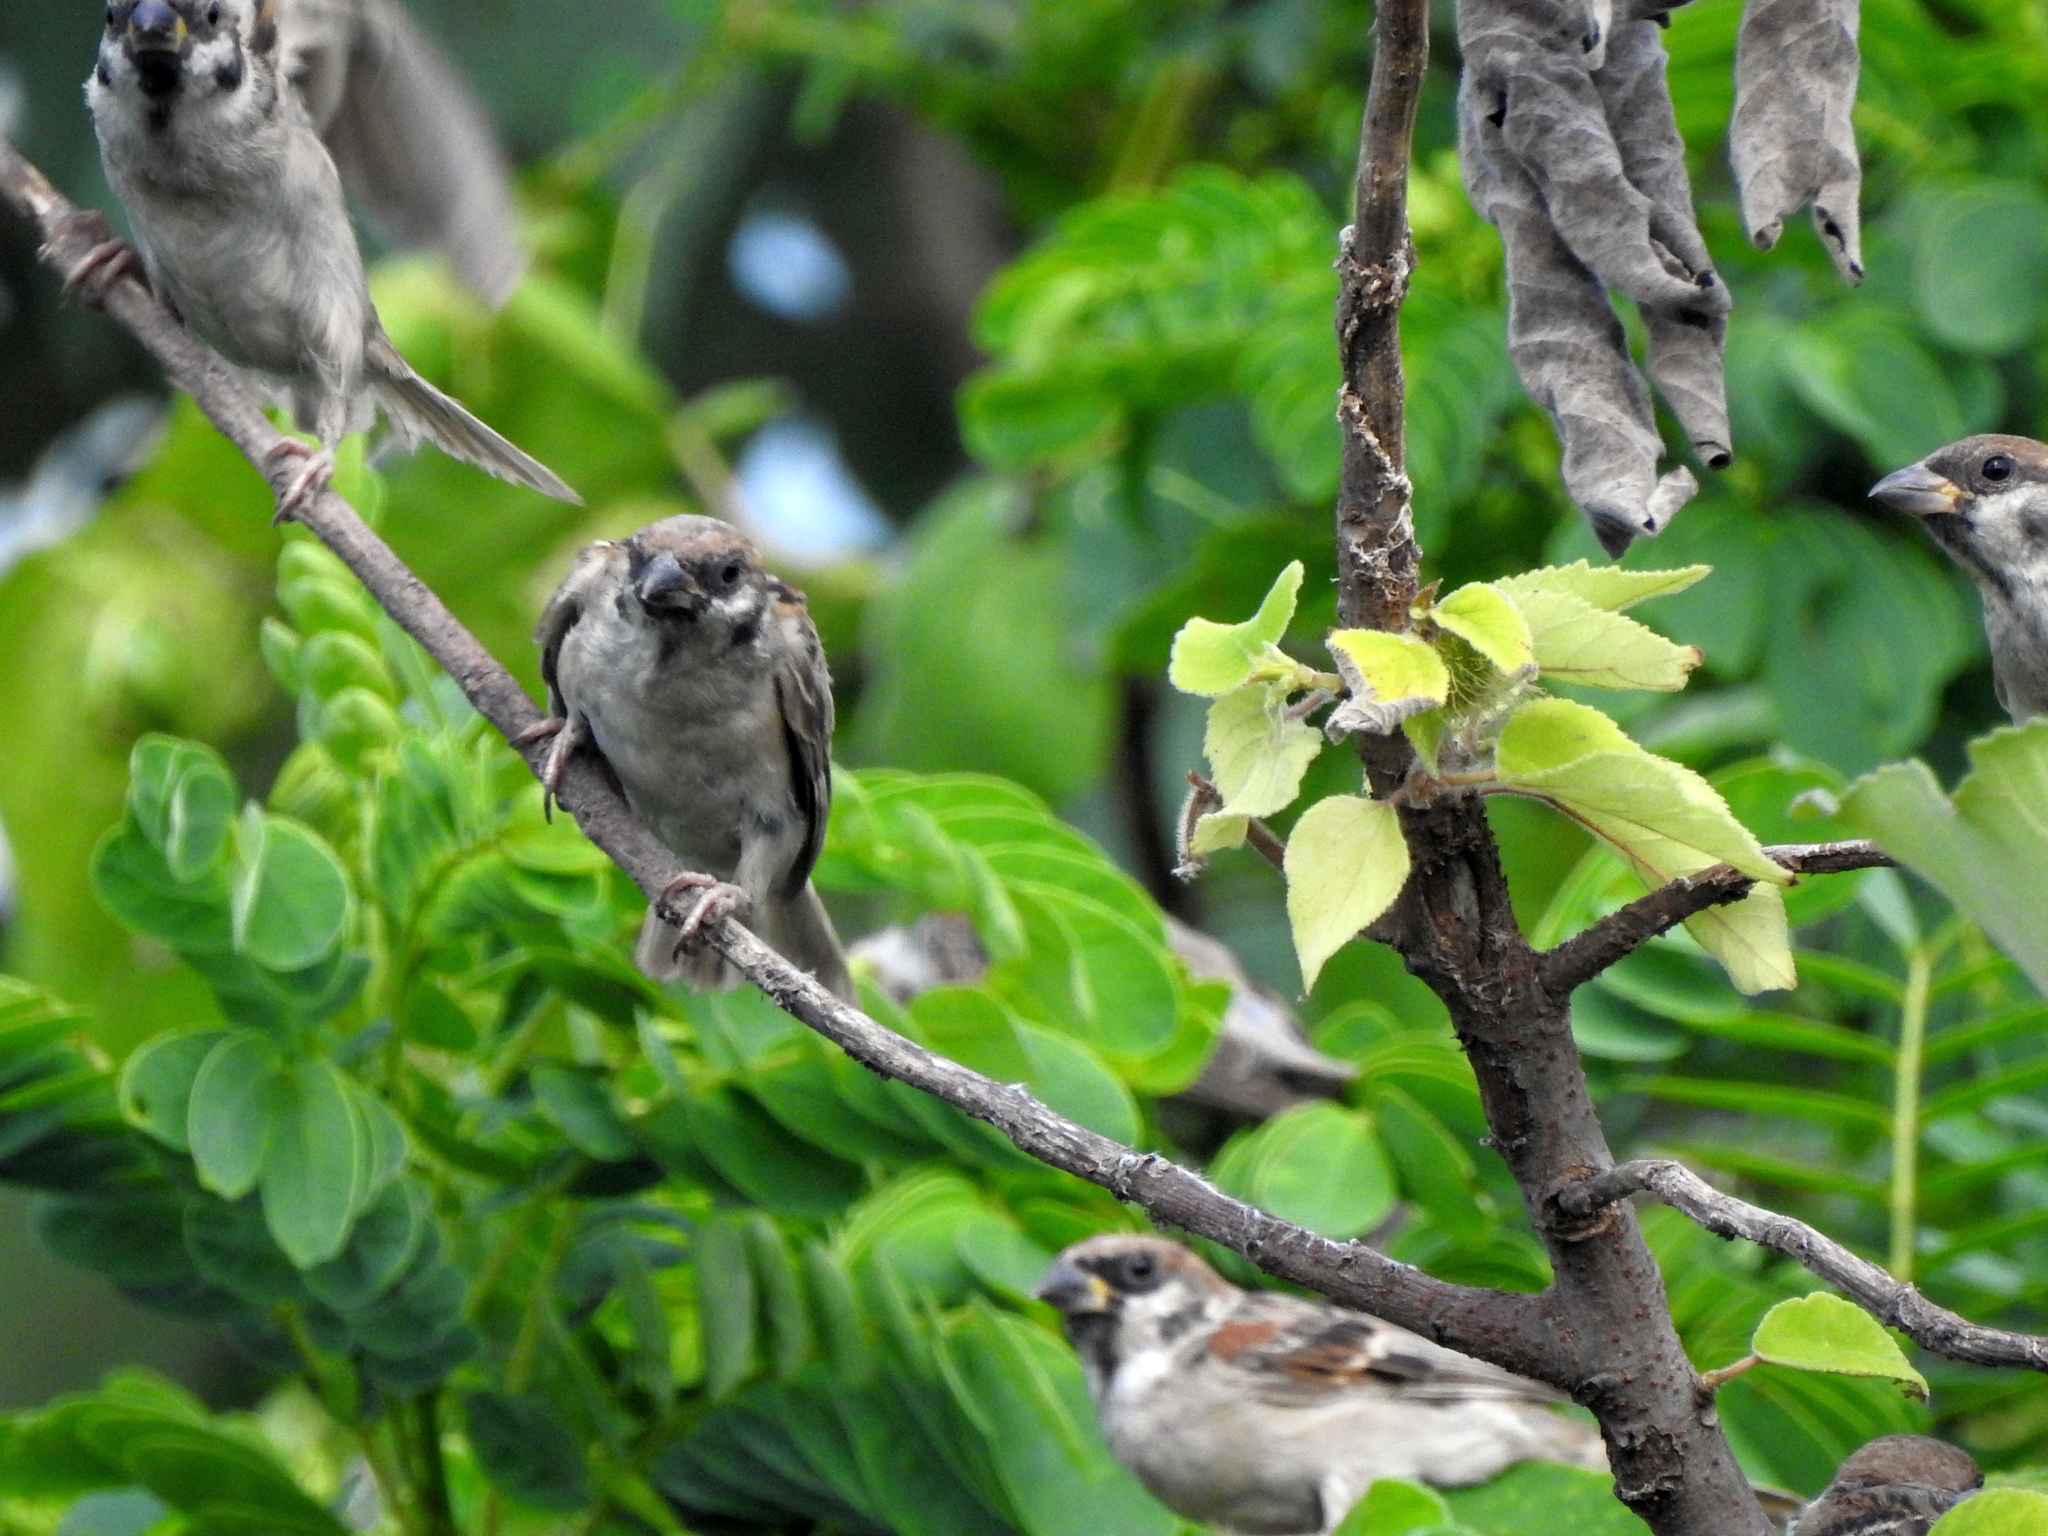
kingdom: Animalia
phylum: Chordata
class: Aves
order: Passeriformes
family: Passeridae
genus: Passer
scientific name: Passer montanus
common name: Eurasian tree sparrow
